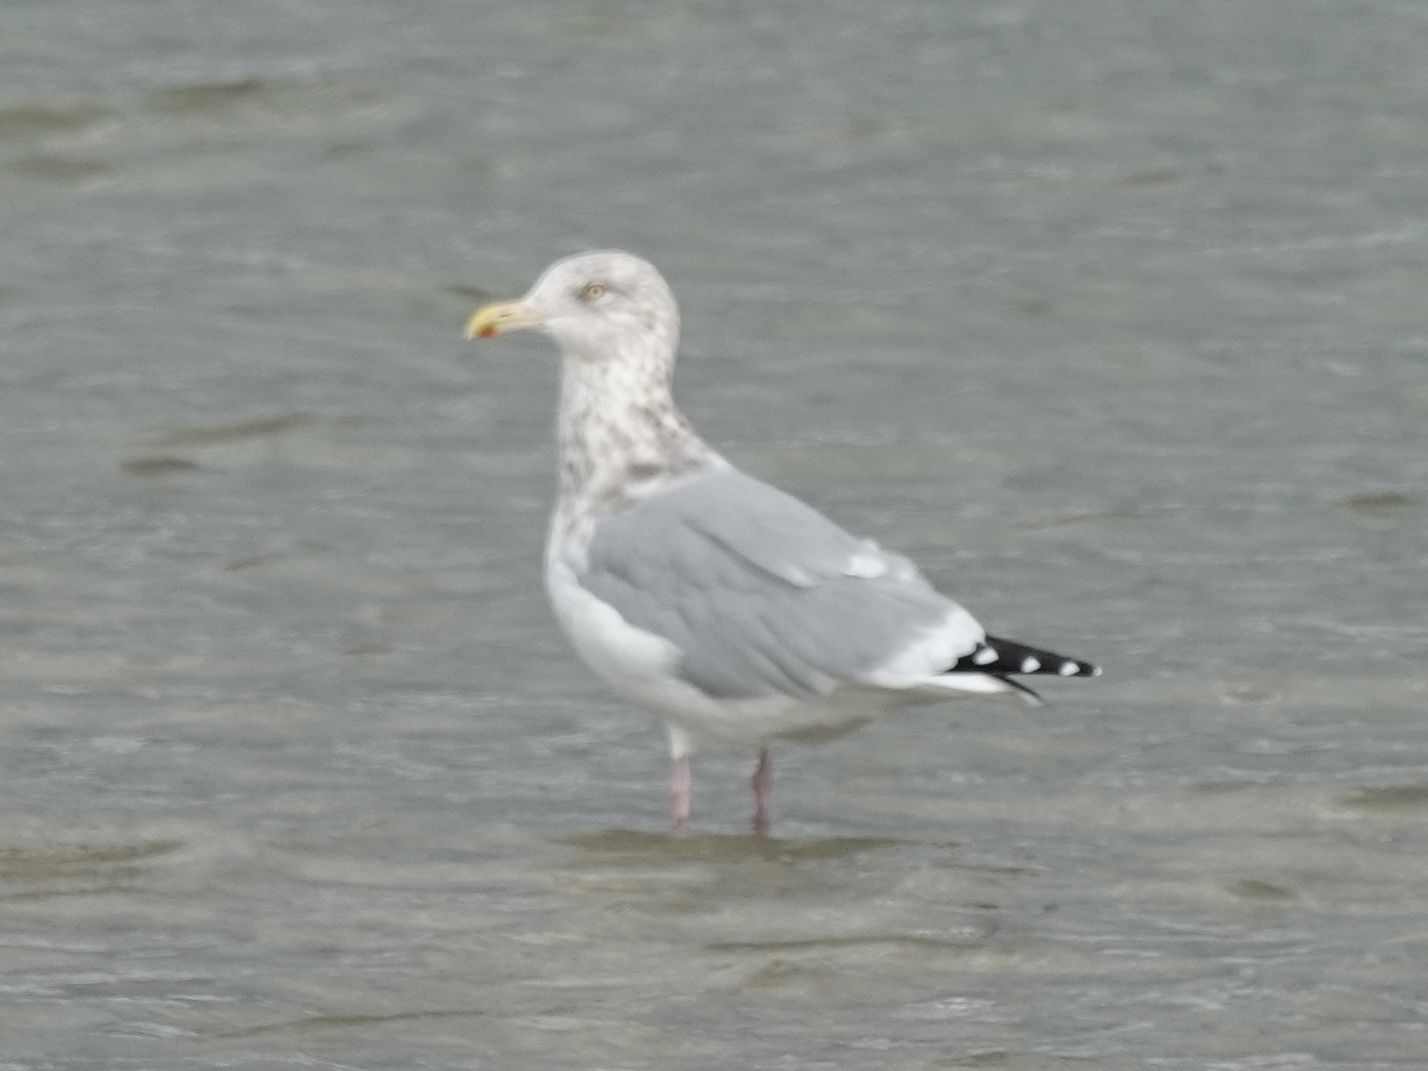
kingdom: Animalia
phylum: Chordata
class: Aves
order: Charadriiformes
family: Laridae
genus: Larus
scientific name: Larus argentatus
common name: Herring gull
